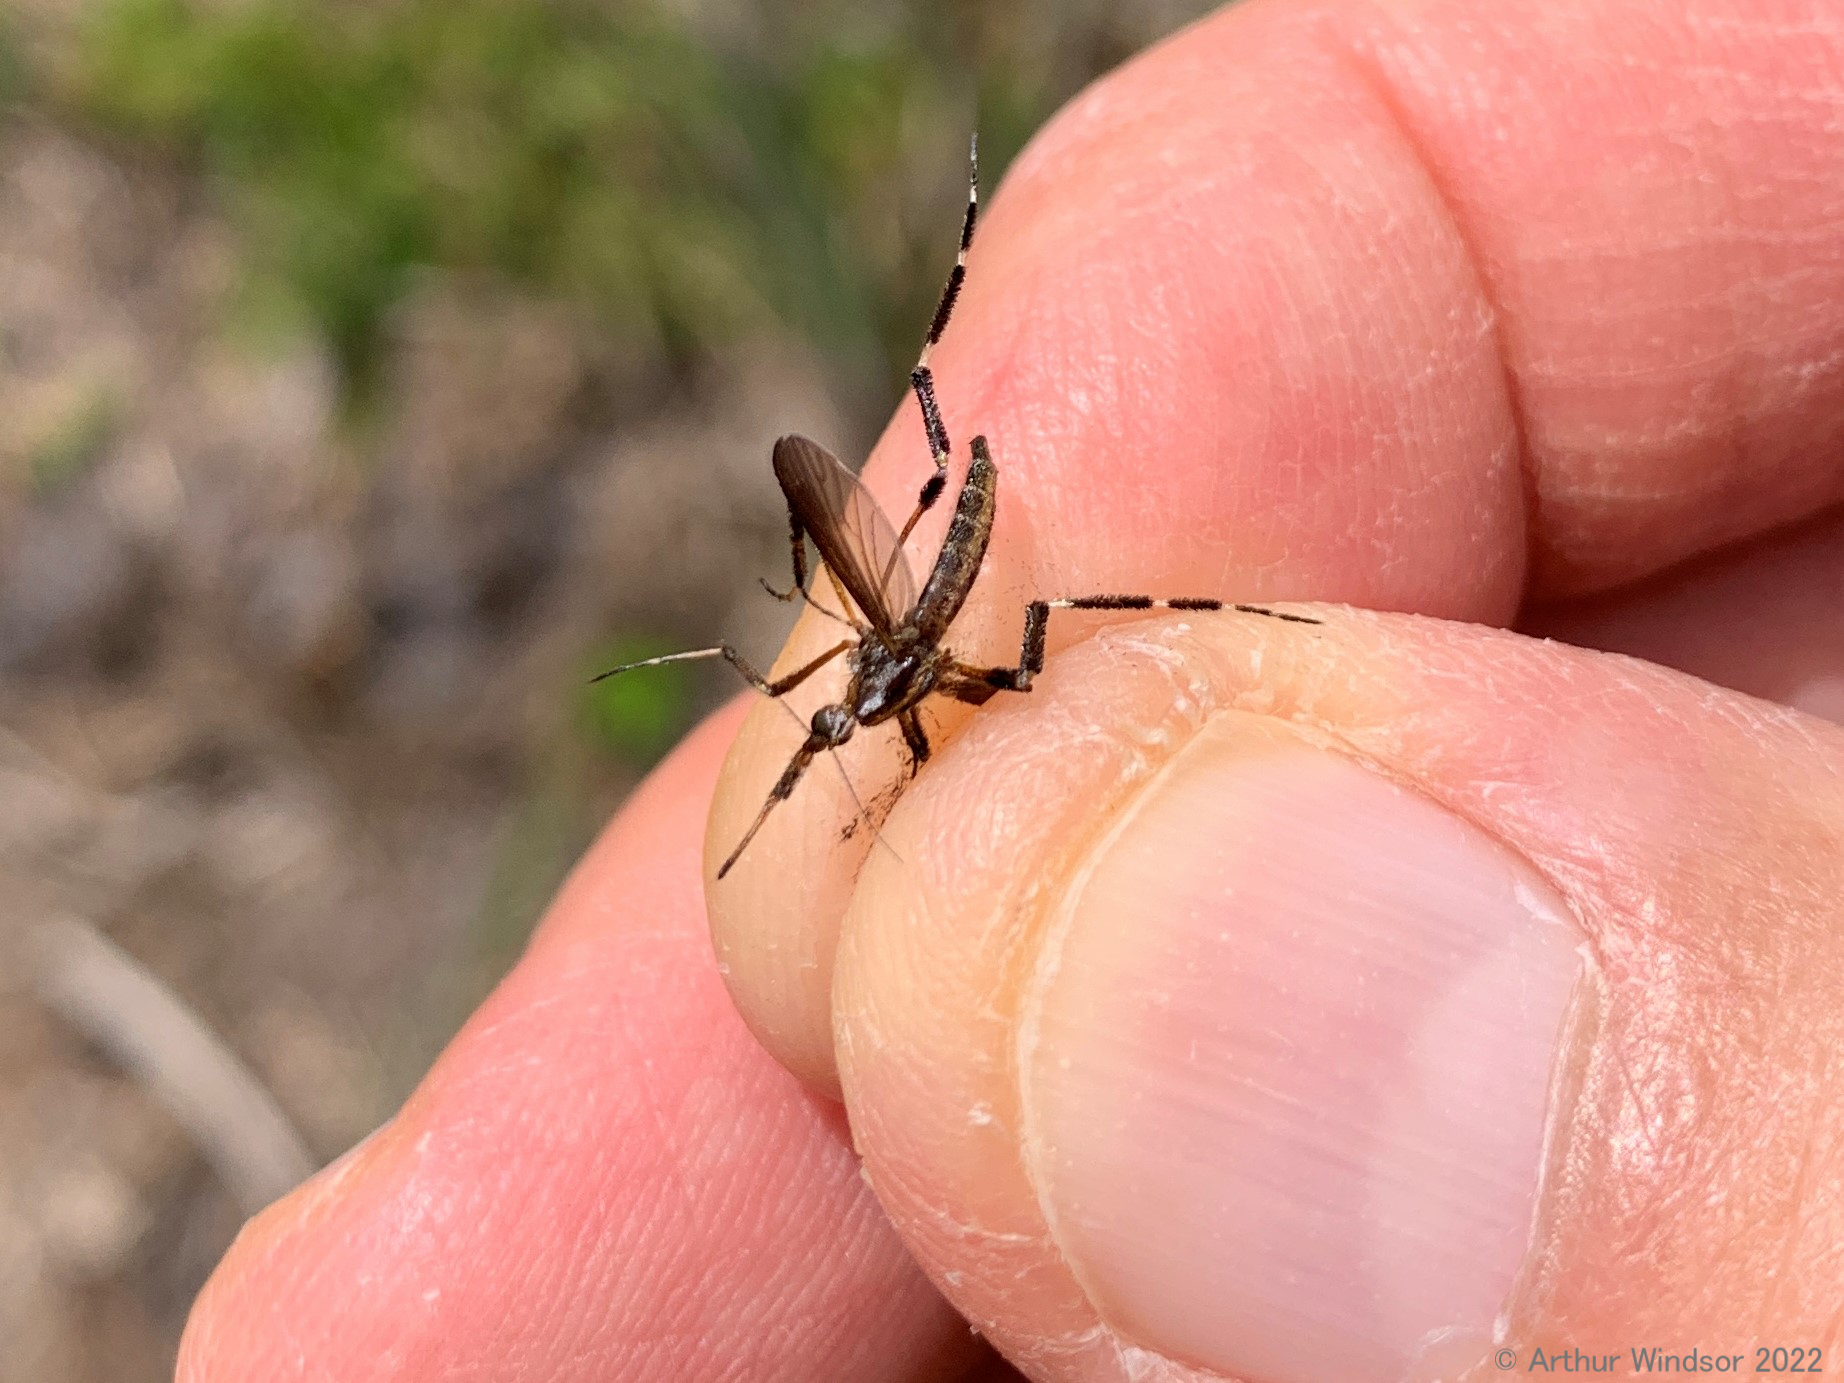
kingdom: Animalia
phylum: Arthropoda
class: Insecta
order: Diptera
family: Culicidae
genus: Psorophora
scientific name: Psorophora ciliata
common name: Gallinipper
